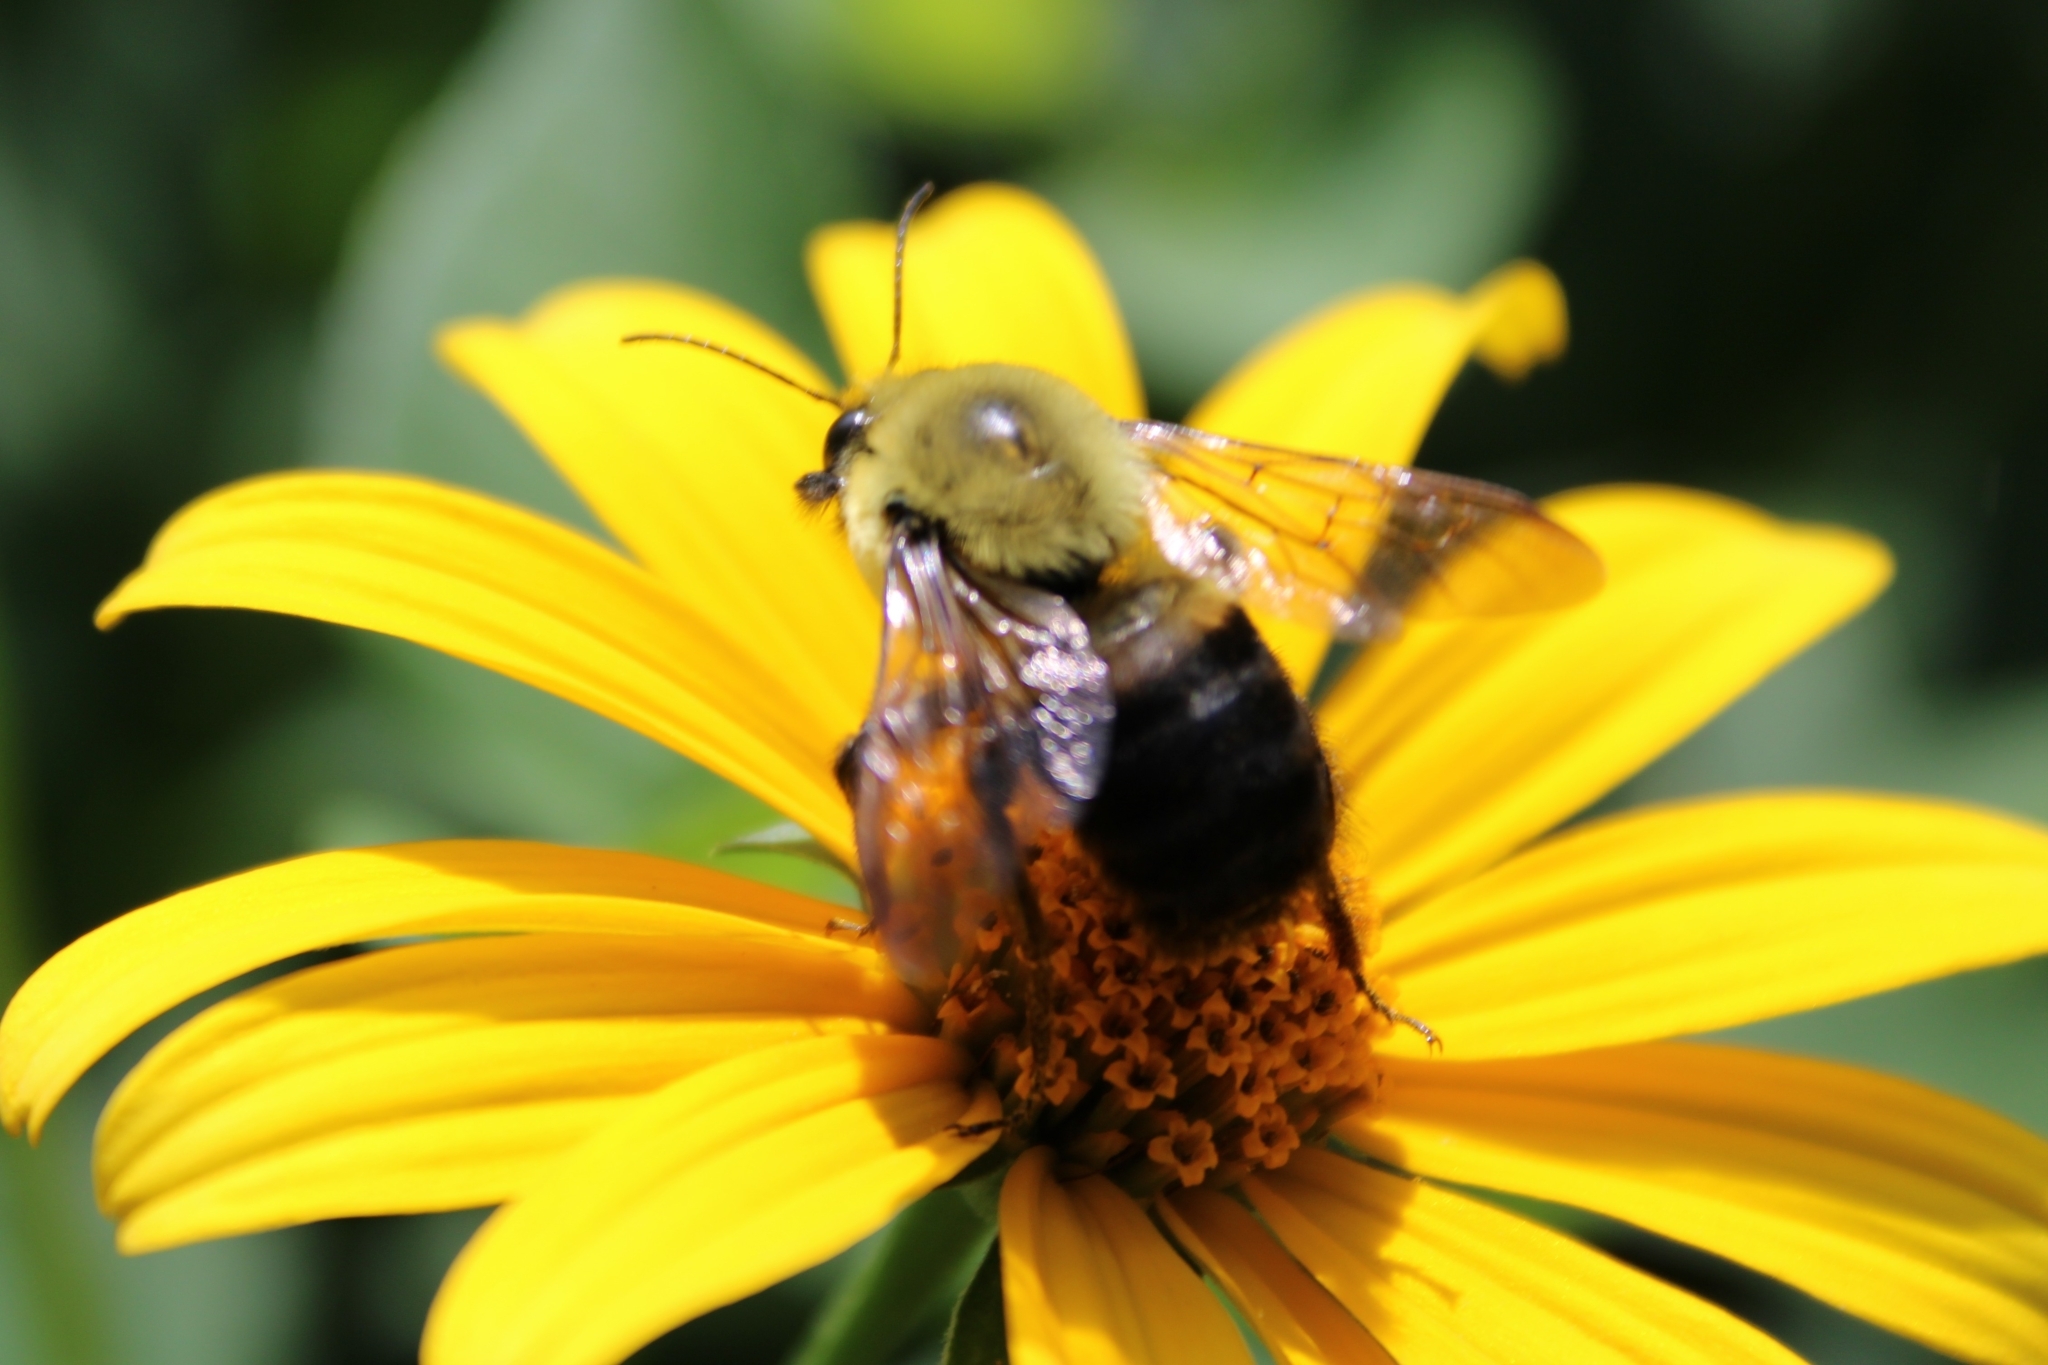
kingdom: Animalia
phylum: Arthropoda
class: Insecta
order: Hymenoptera
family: Apidae
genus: Bombus
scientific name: Bombus griseocollis
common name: Brown-belted bumble bee
